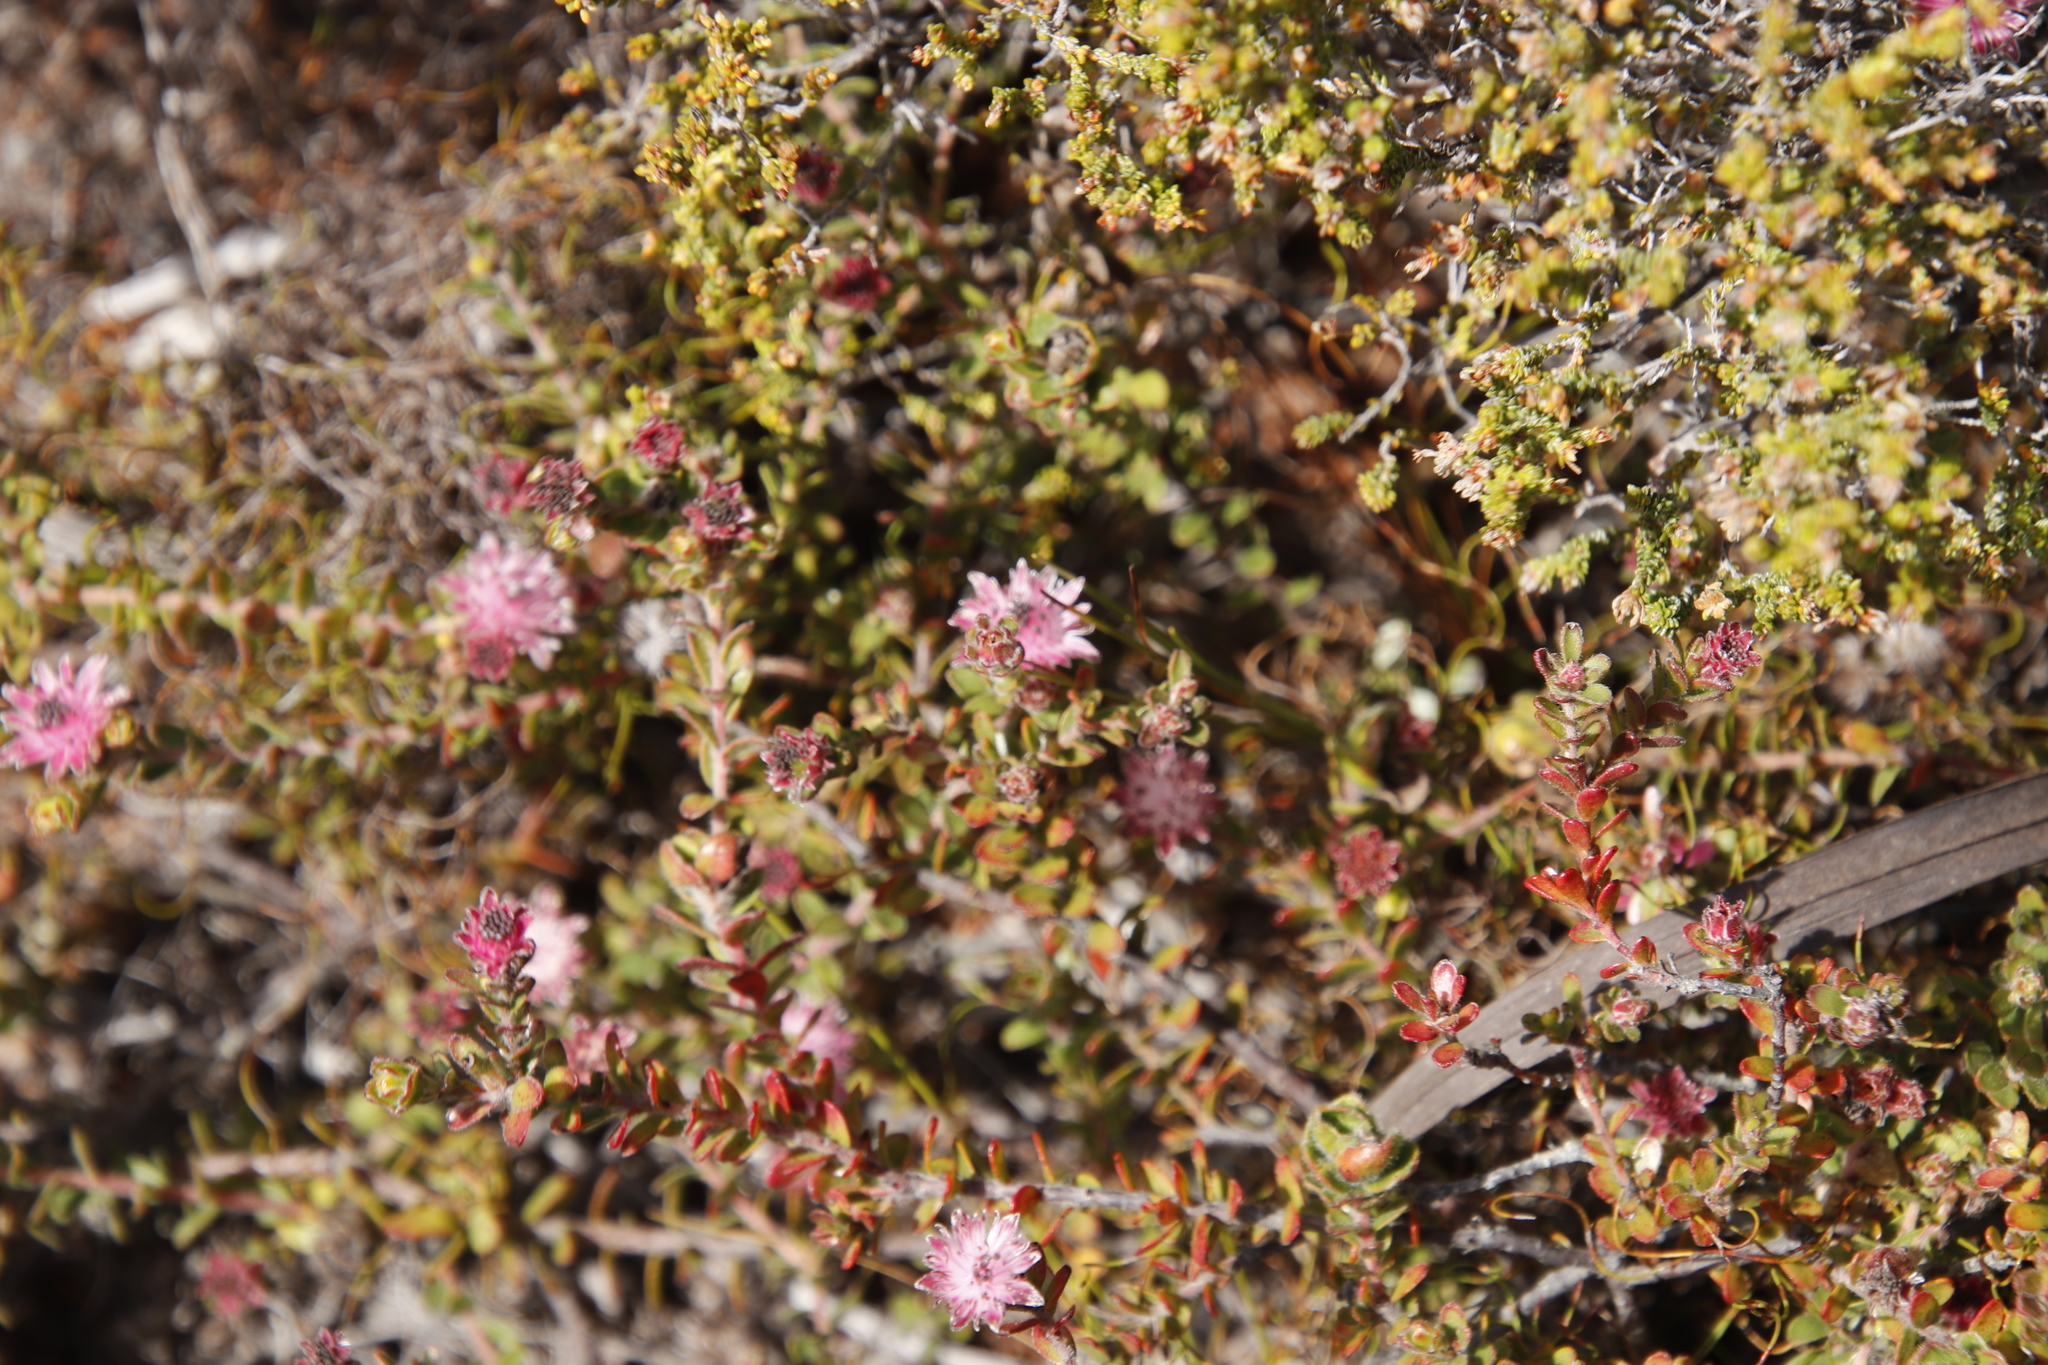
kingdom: Plantae
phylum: Tracheophyta
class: Magnoliopsida
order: Proteales
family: Proteaceae
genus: Diastella
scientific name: Diastella divaricata
